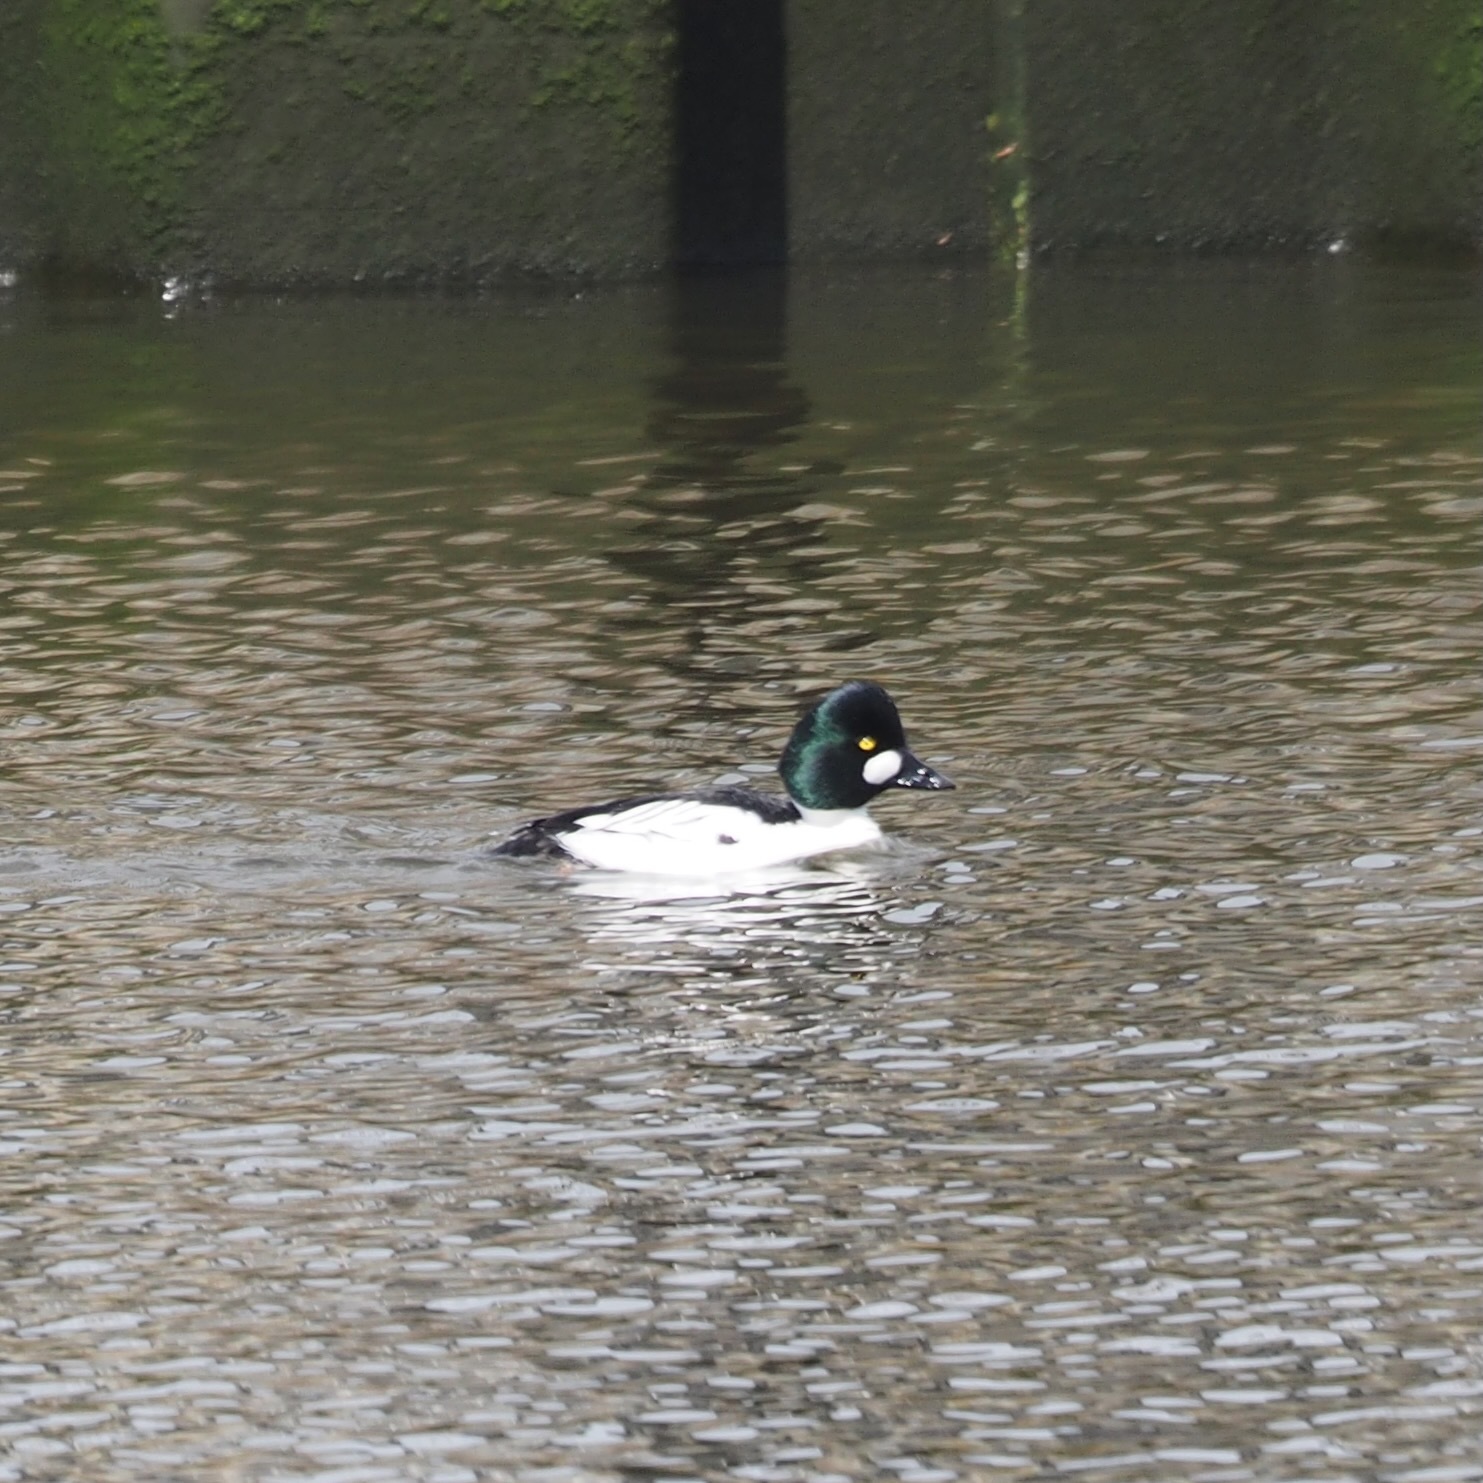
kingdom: Animalia
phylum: Chordata
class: Aves
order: Anseriformes
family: Anatidae
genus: Bucephala
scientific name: Bucephala clangula
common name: Common goldeneye
